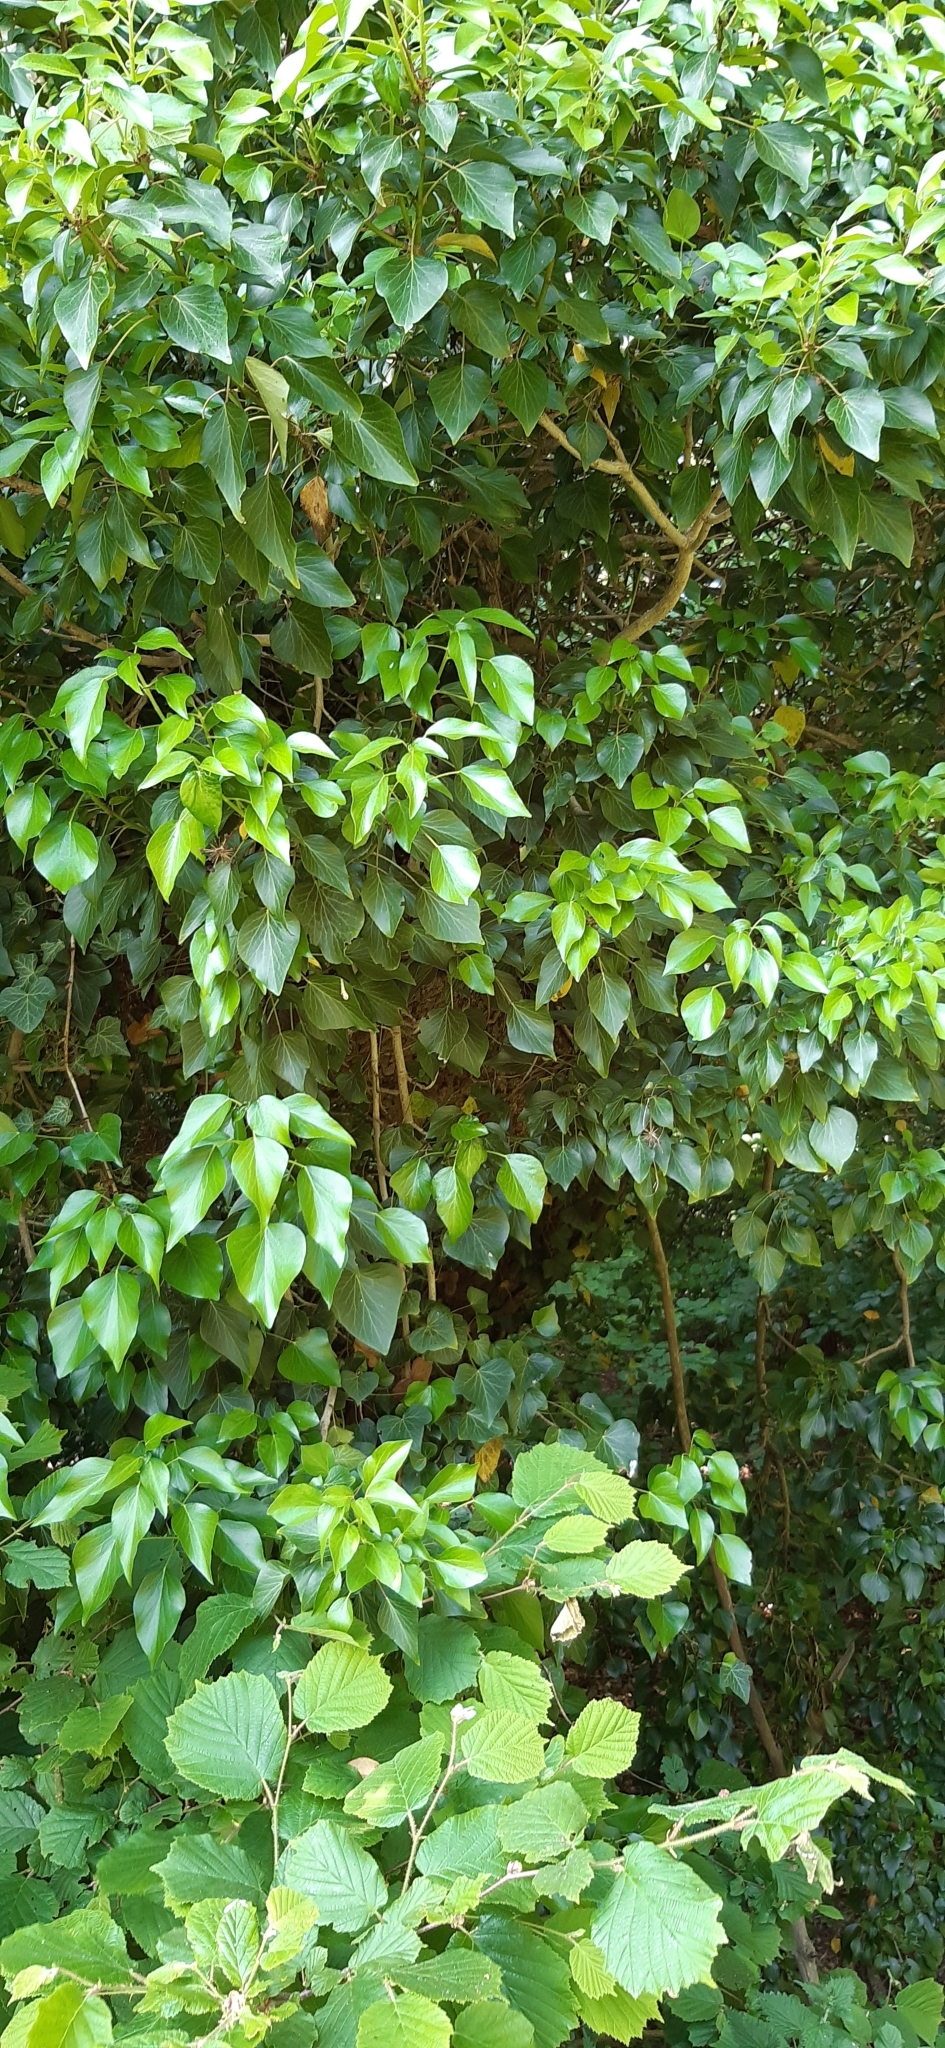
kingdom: Plantae
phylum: Tracheophyta
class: Magnoliopsida
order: Apiales
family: Araliaceae
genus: Hedera
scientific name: Hedera helix
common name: Ivy
